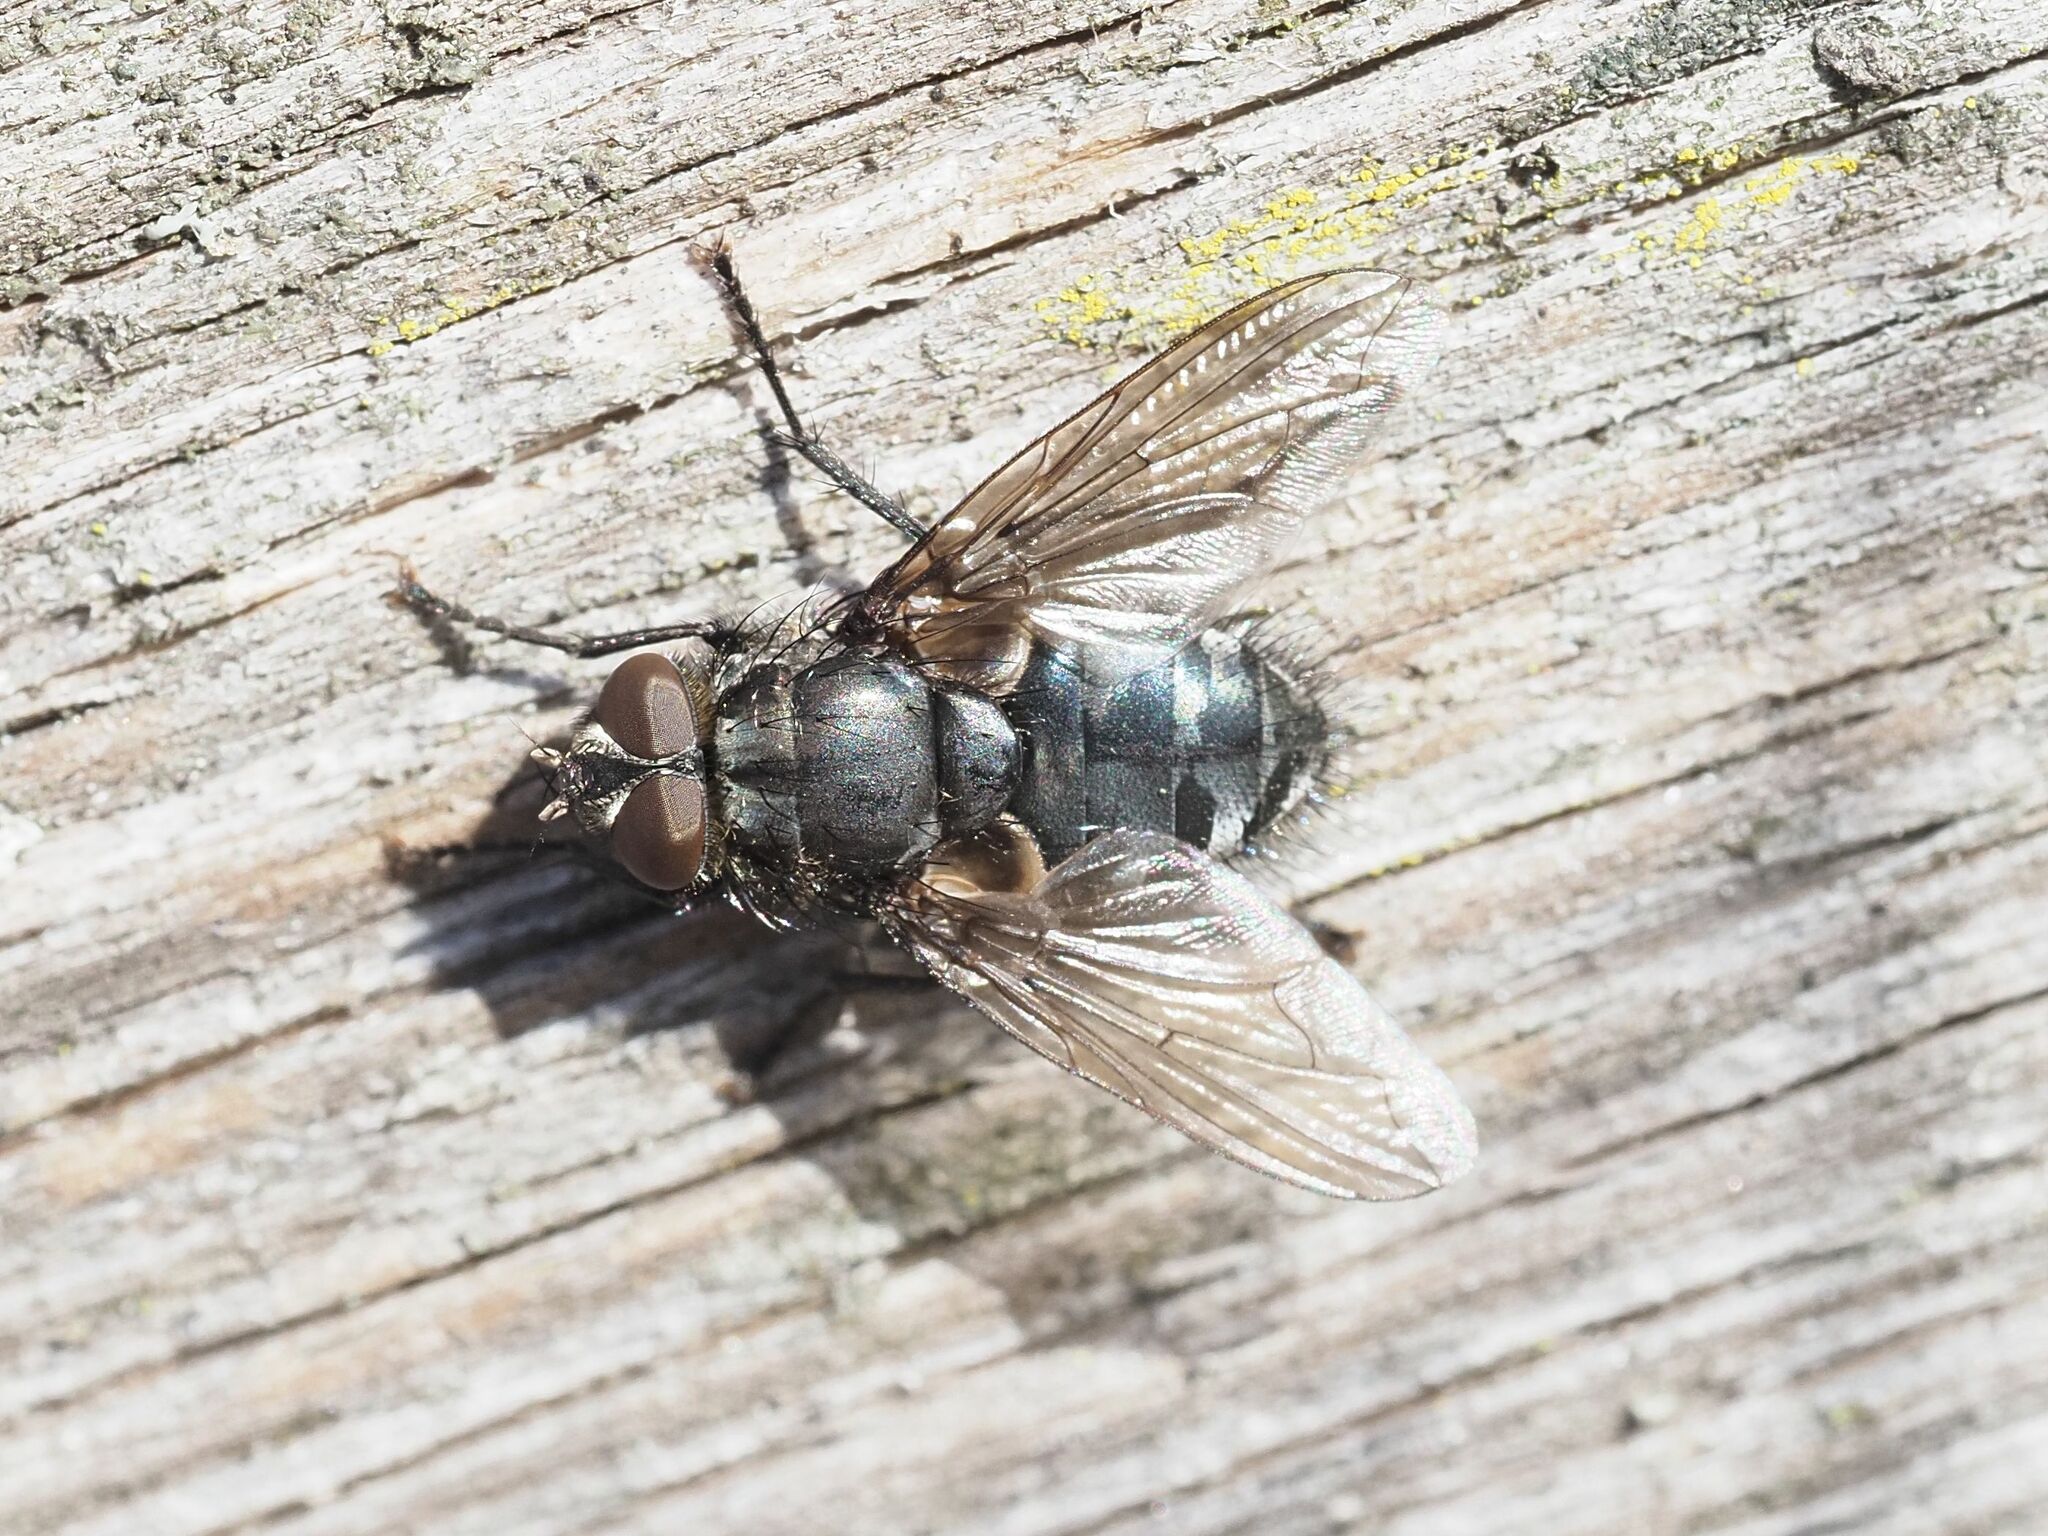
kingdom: Animalia
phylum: Arthropoda
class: Insecta
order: Diptera
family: Polleniidae
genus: Pollenia
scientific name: Pollenia vagabunda
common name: Vagabund cluster fly
